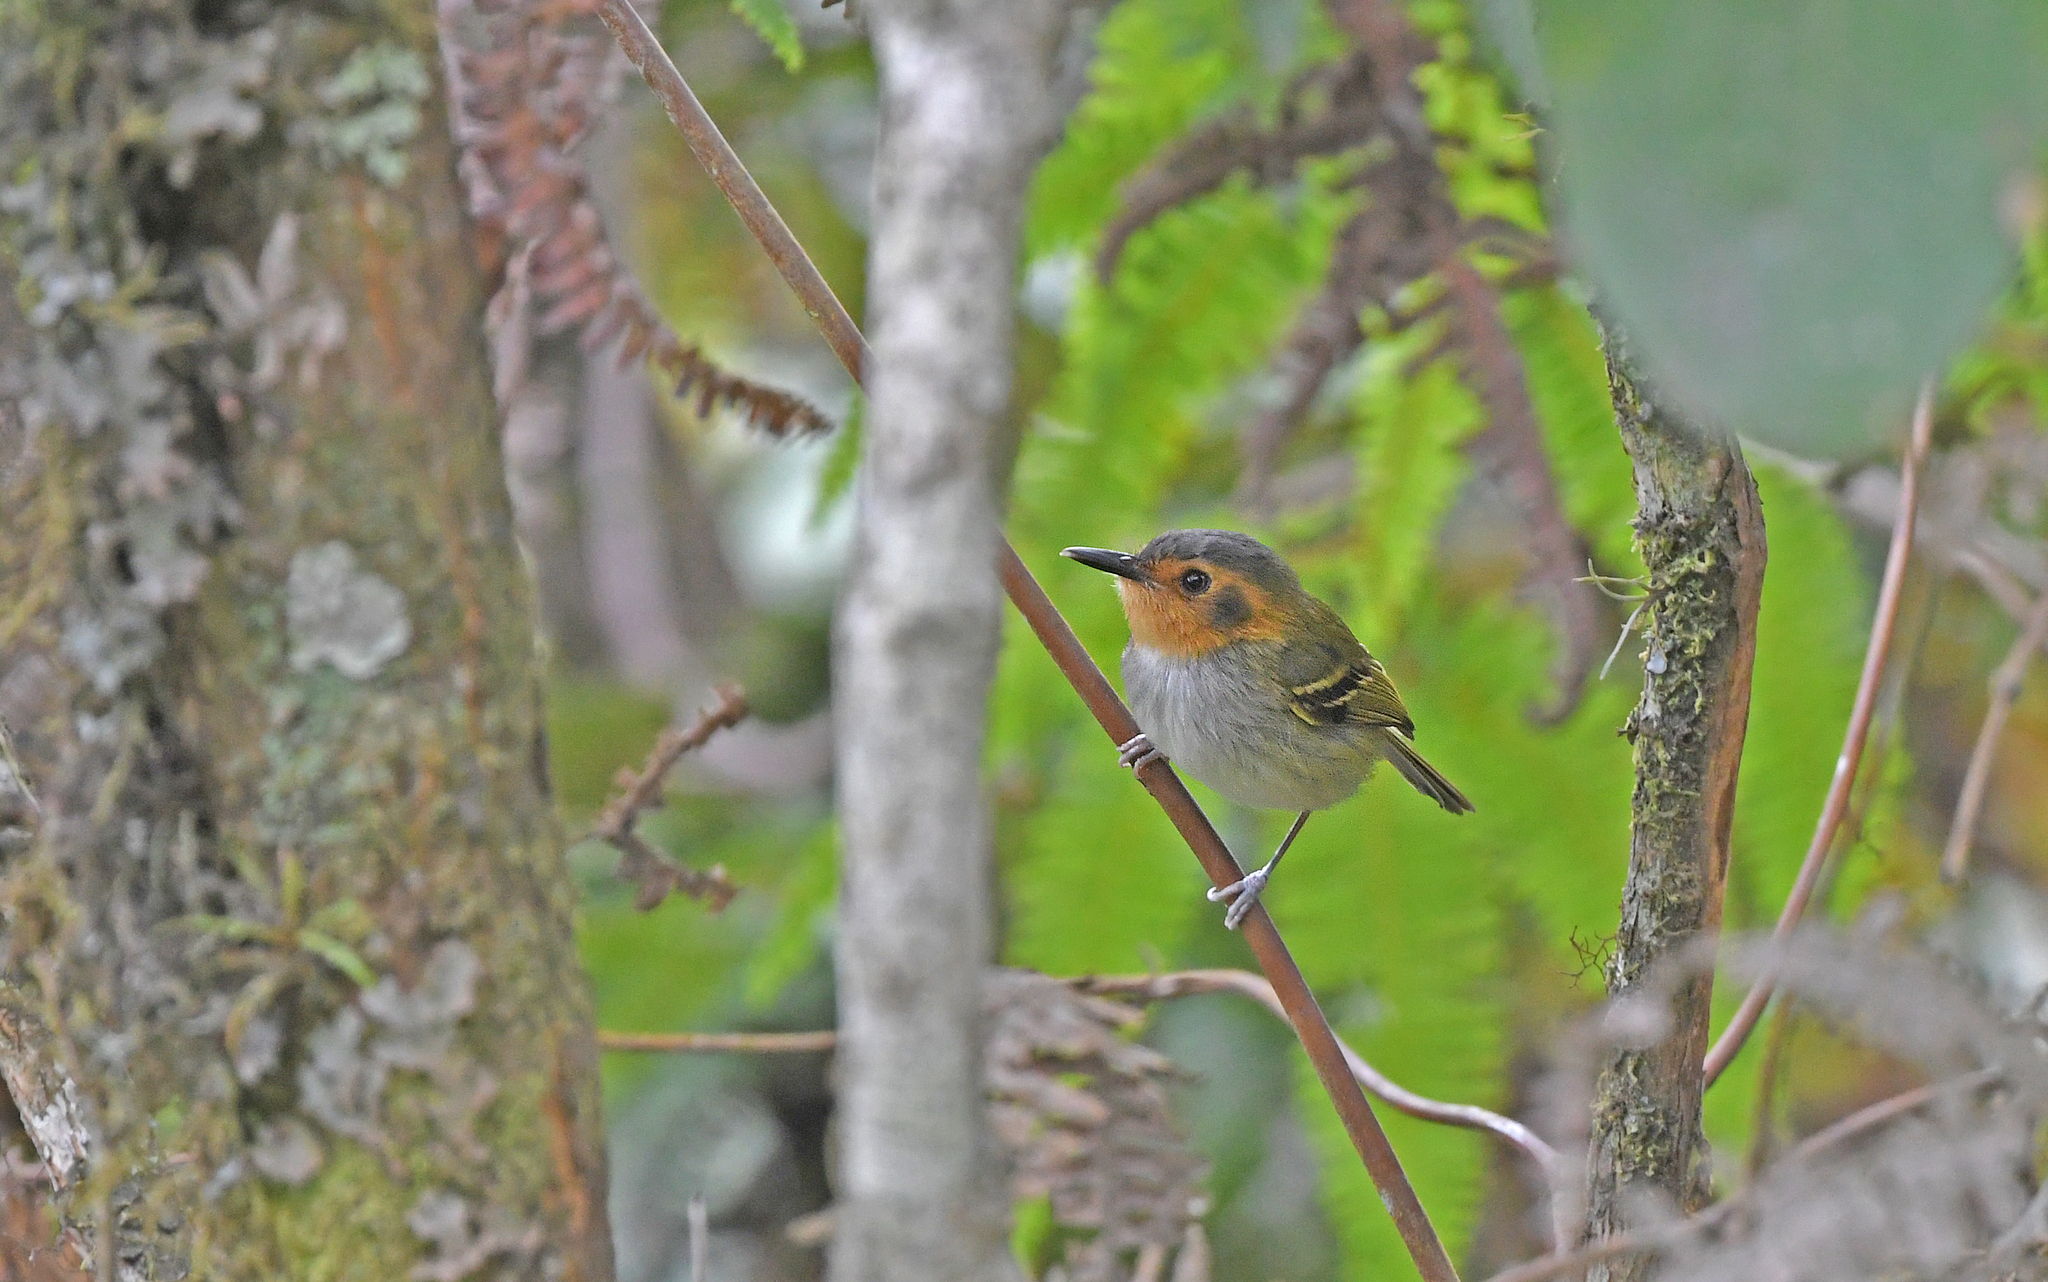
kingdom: Animalia
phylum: Chordata
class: Aves
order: Passeriformes
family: Tyrannidae
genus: Poecilotriccus
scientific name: Poecilotriccus plumbeiceps
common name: Ochre-faced tody-flycatcher
